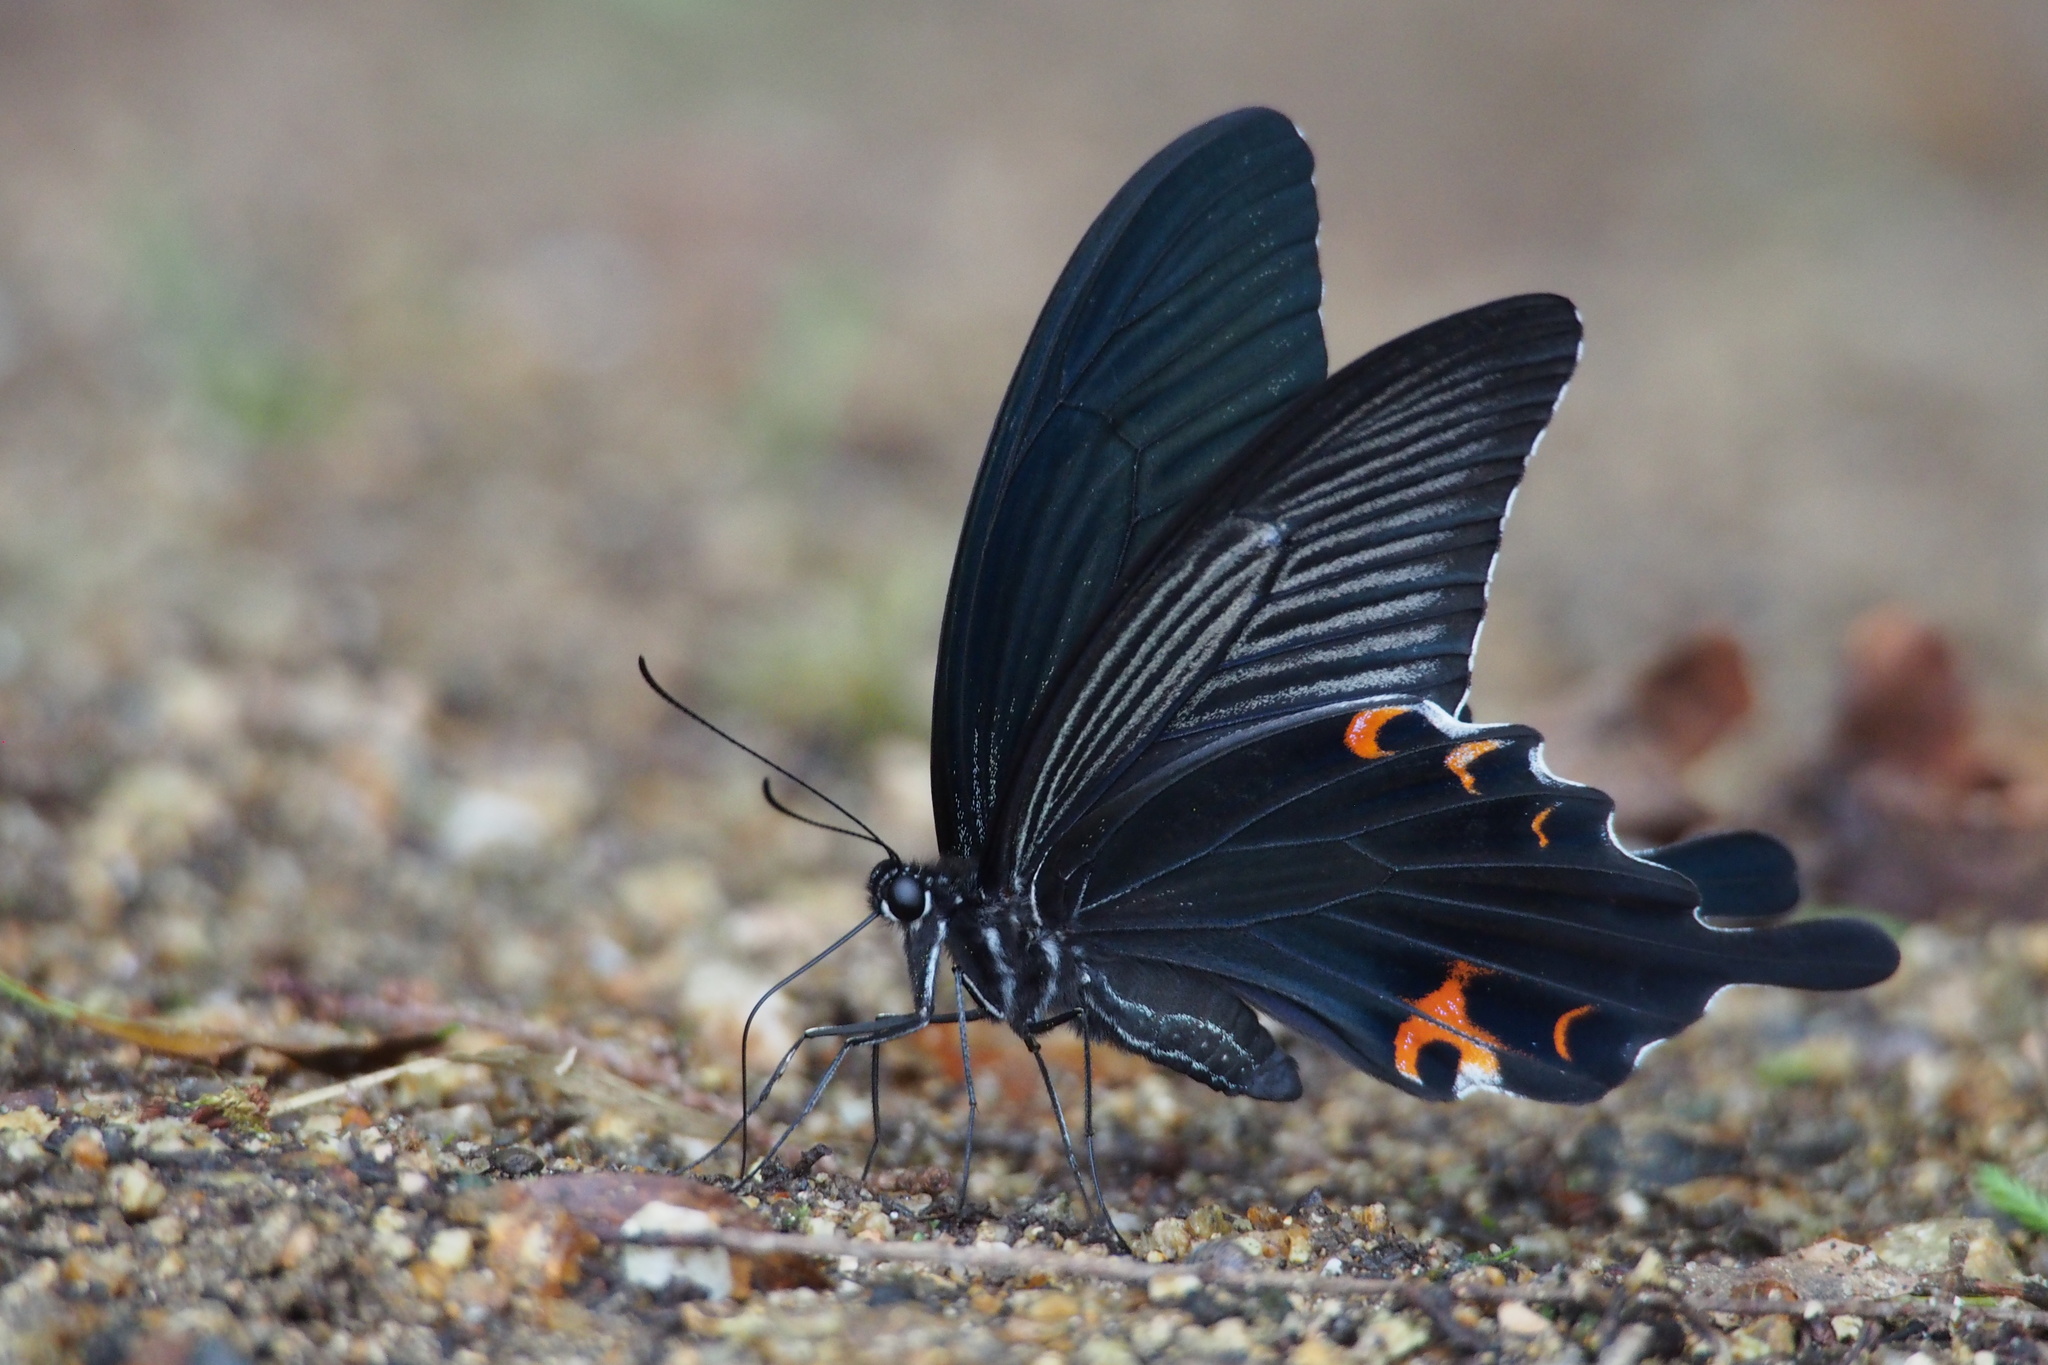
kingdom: Animalia
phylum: Arthropoda
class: Insecta
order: Lepidoptera
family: Papilionidae
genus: Papilio
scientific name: Papilio demetrius
